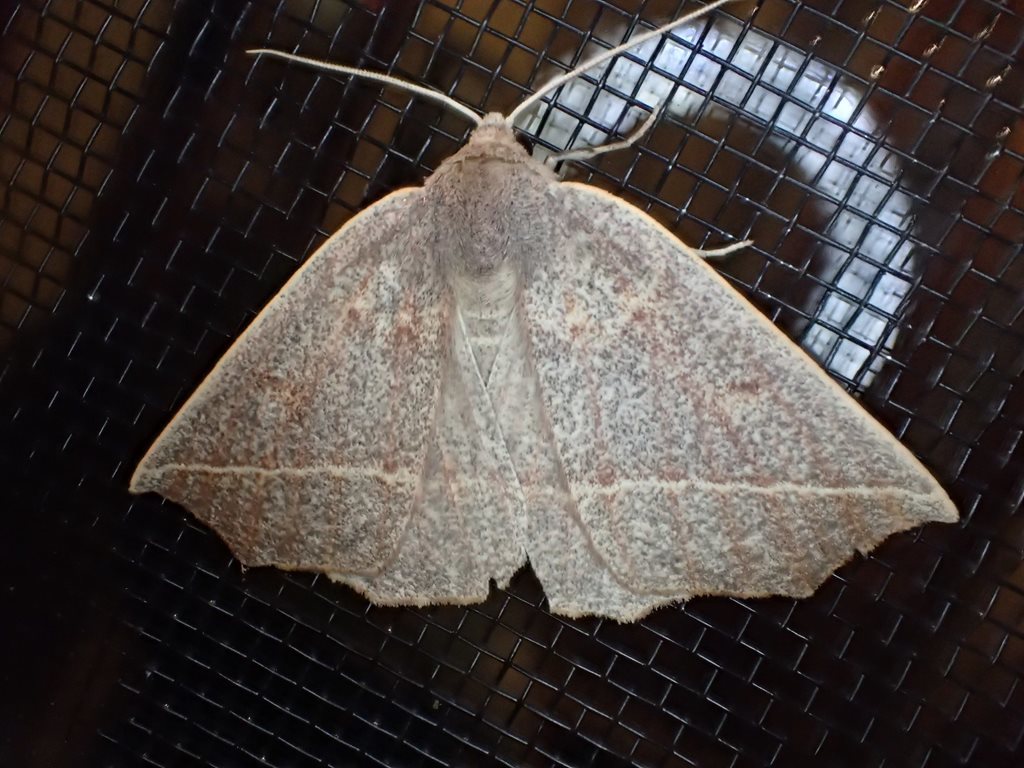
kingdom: Animalia
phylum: Arthropoda
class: Insecta
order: Lepidoptera
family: Geometridae
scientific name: Geometridae
